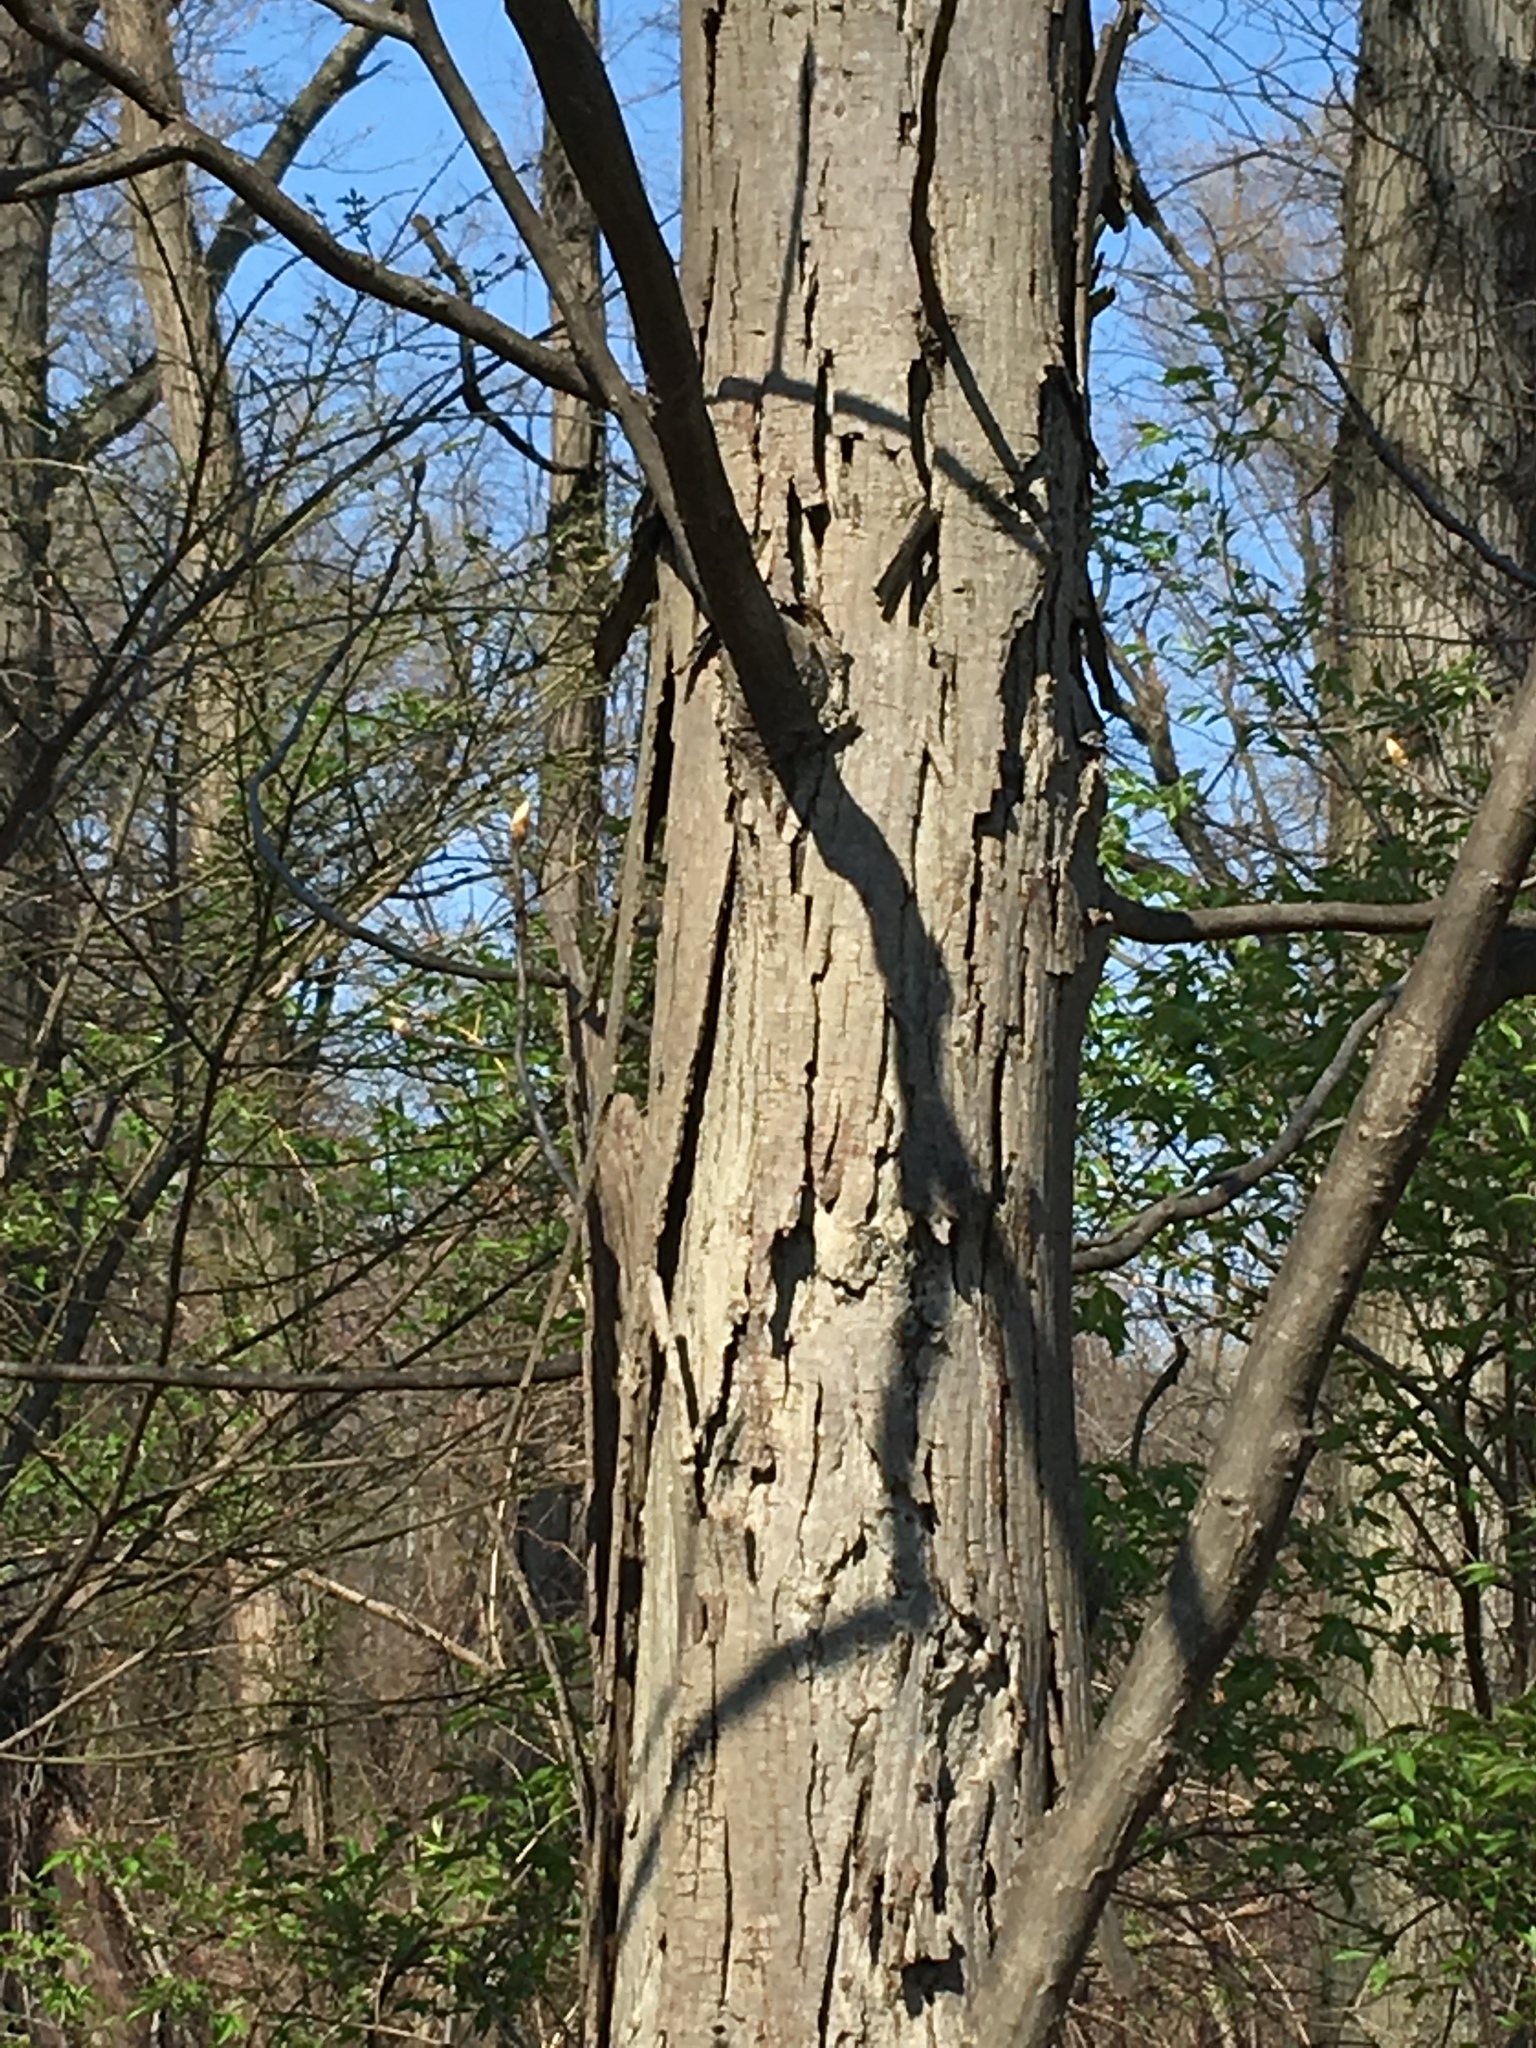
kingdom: Plantae
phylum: Tracheophyta
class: Magnoliopsida
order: Fagales
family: Juglandaceae
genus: Carya
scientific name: Carya ovata
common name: Shagbark hickory
